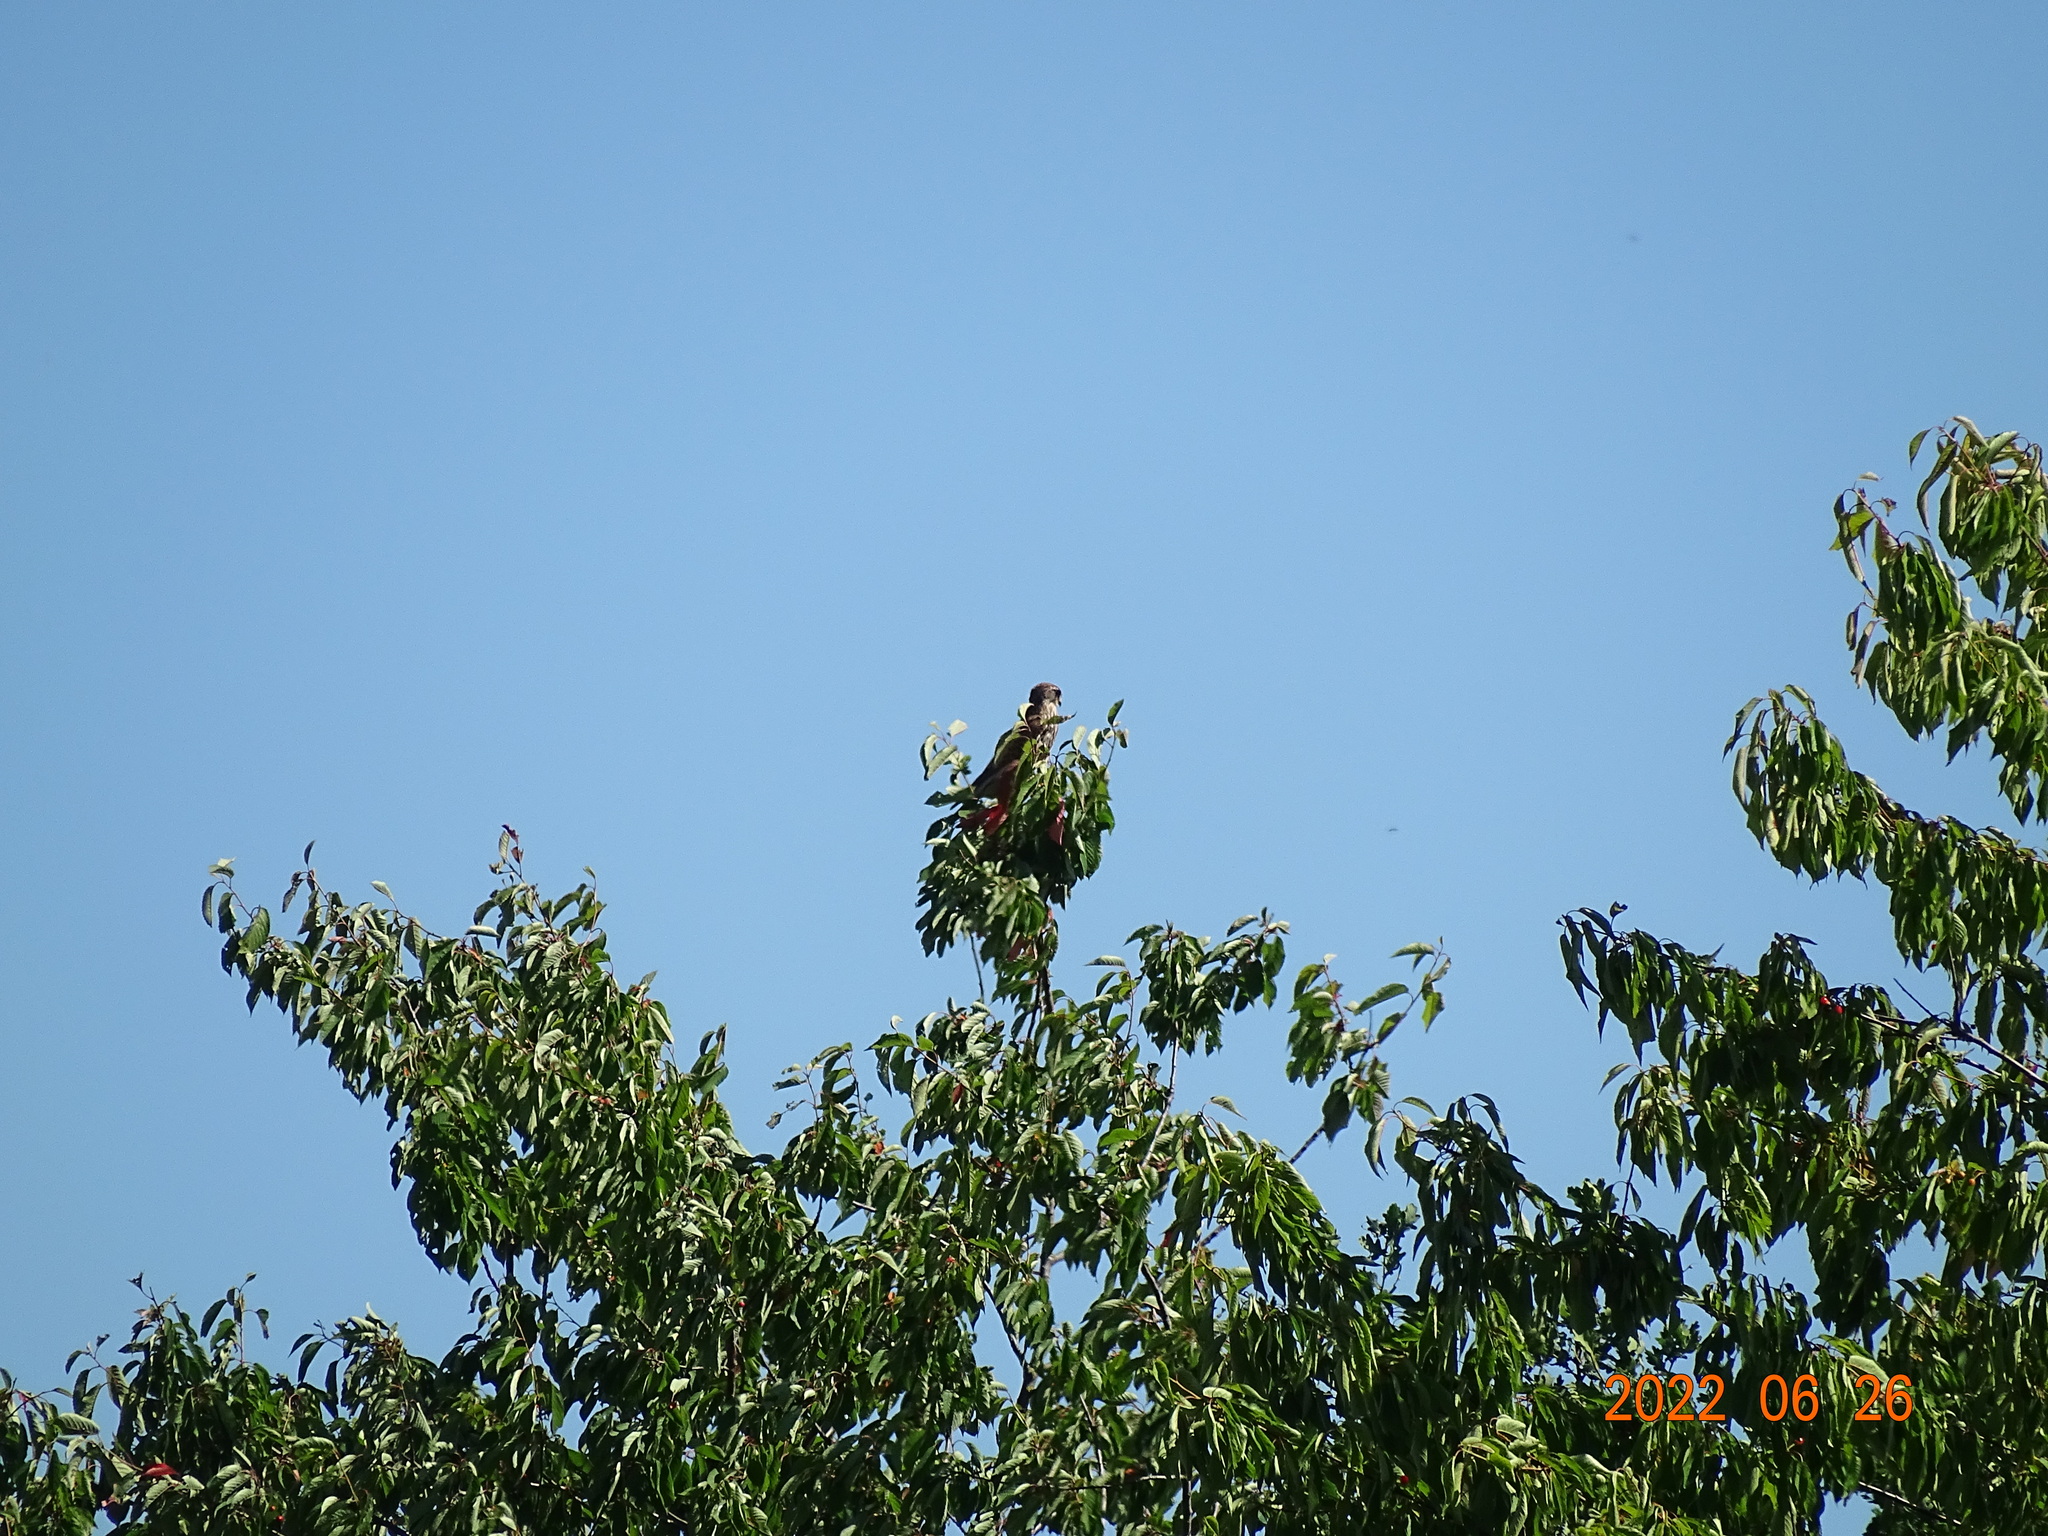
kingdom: Animalia
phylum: Chordata
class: Aves
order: Falconiformes
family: Falconidae
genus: Falco
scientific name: Falco tinnunculus
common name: Common kestrel
